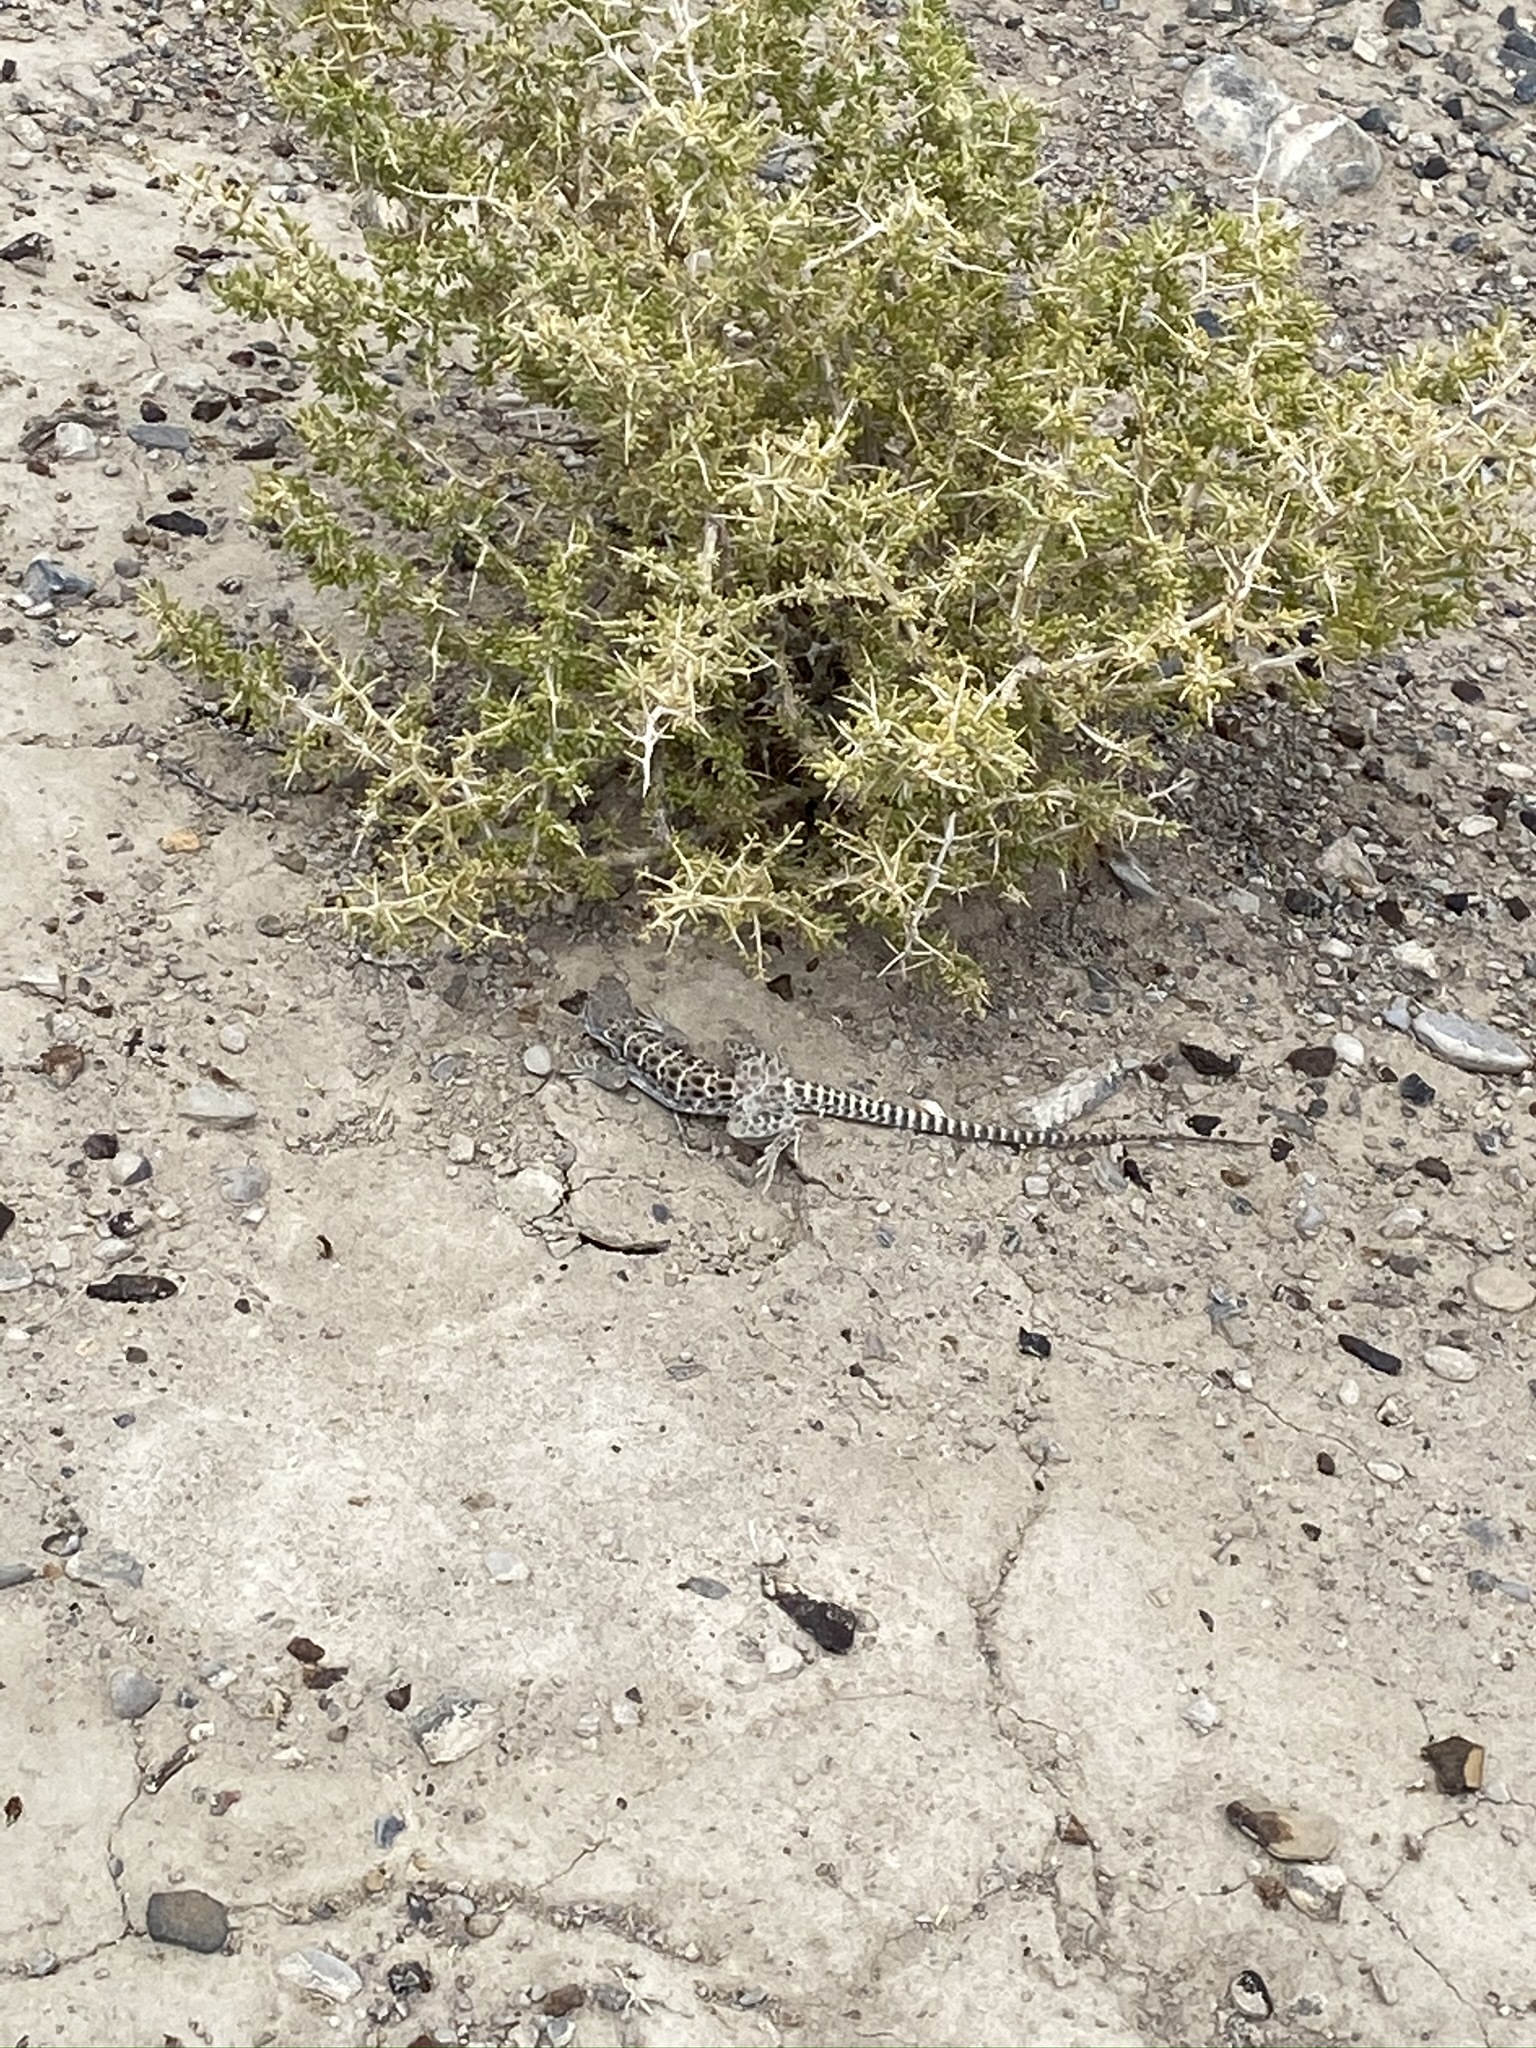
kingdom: Animalia
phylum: Chordata
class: Squamata
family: Crotaphytidae
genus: Gambelia
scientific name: Gambelia wislizenii
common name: Longnose leopard lizard
